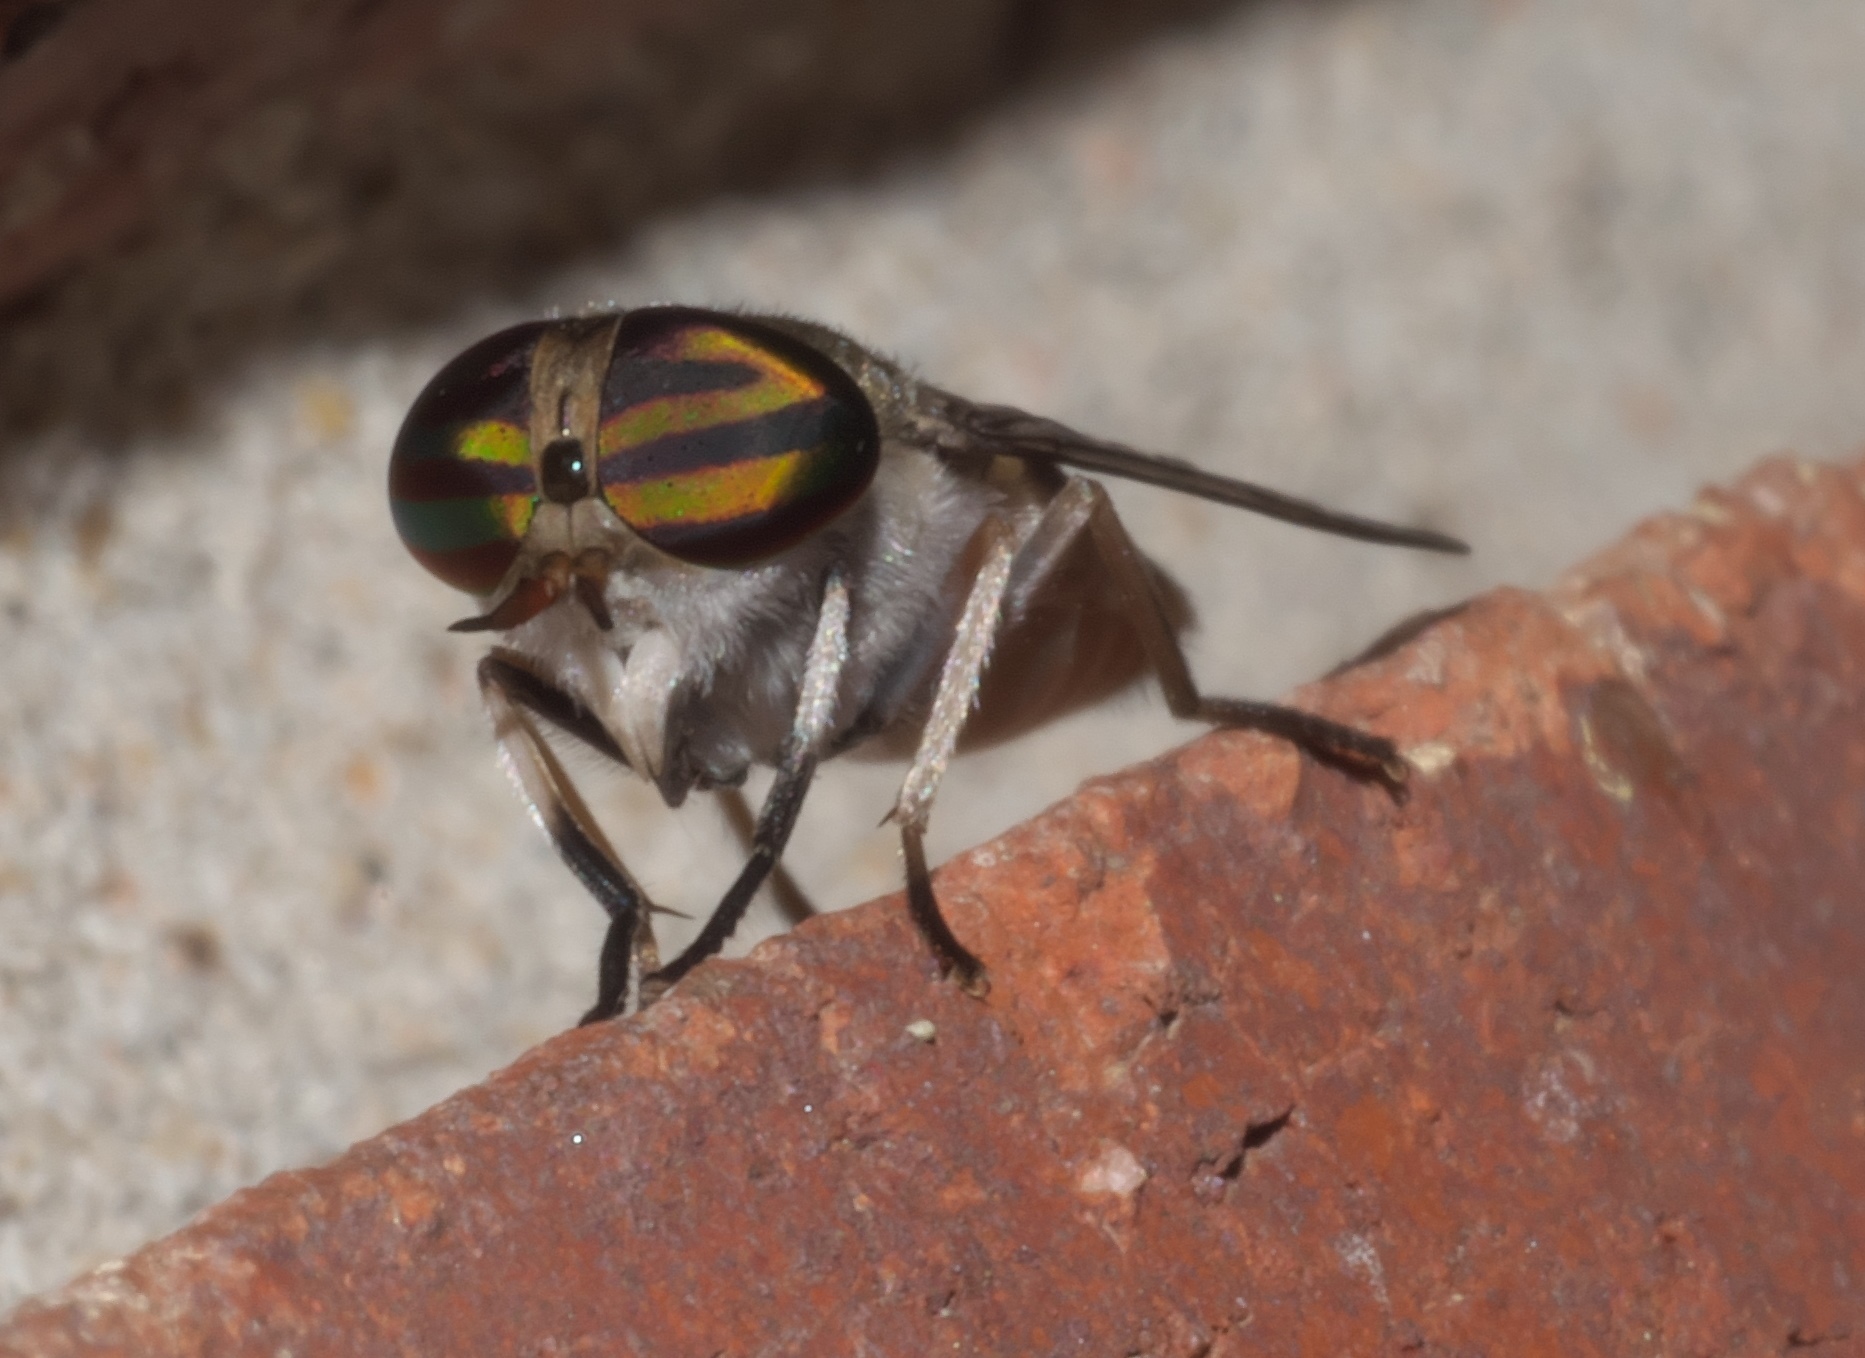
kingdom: Animalia
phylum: Arthropoda
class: Insecta
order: Diptera
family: Tabanidae
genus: Tabanus
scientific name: Tabanus lineola
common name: Striped horse fly
